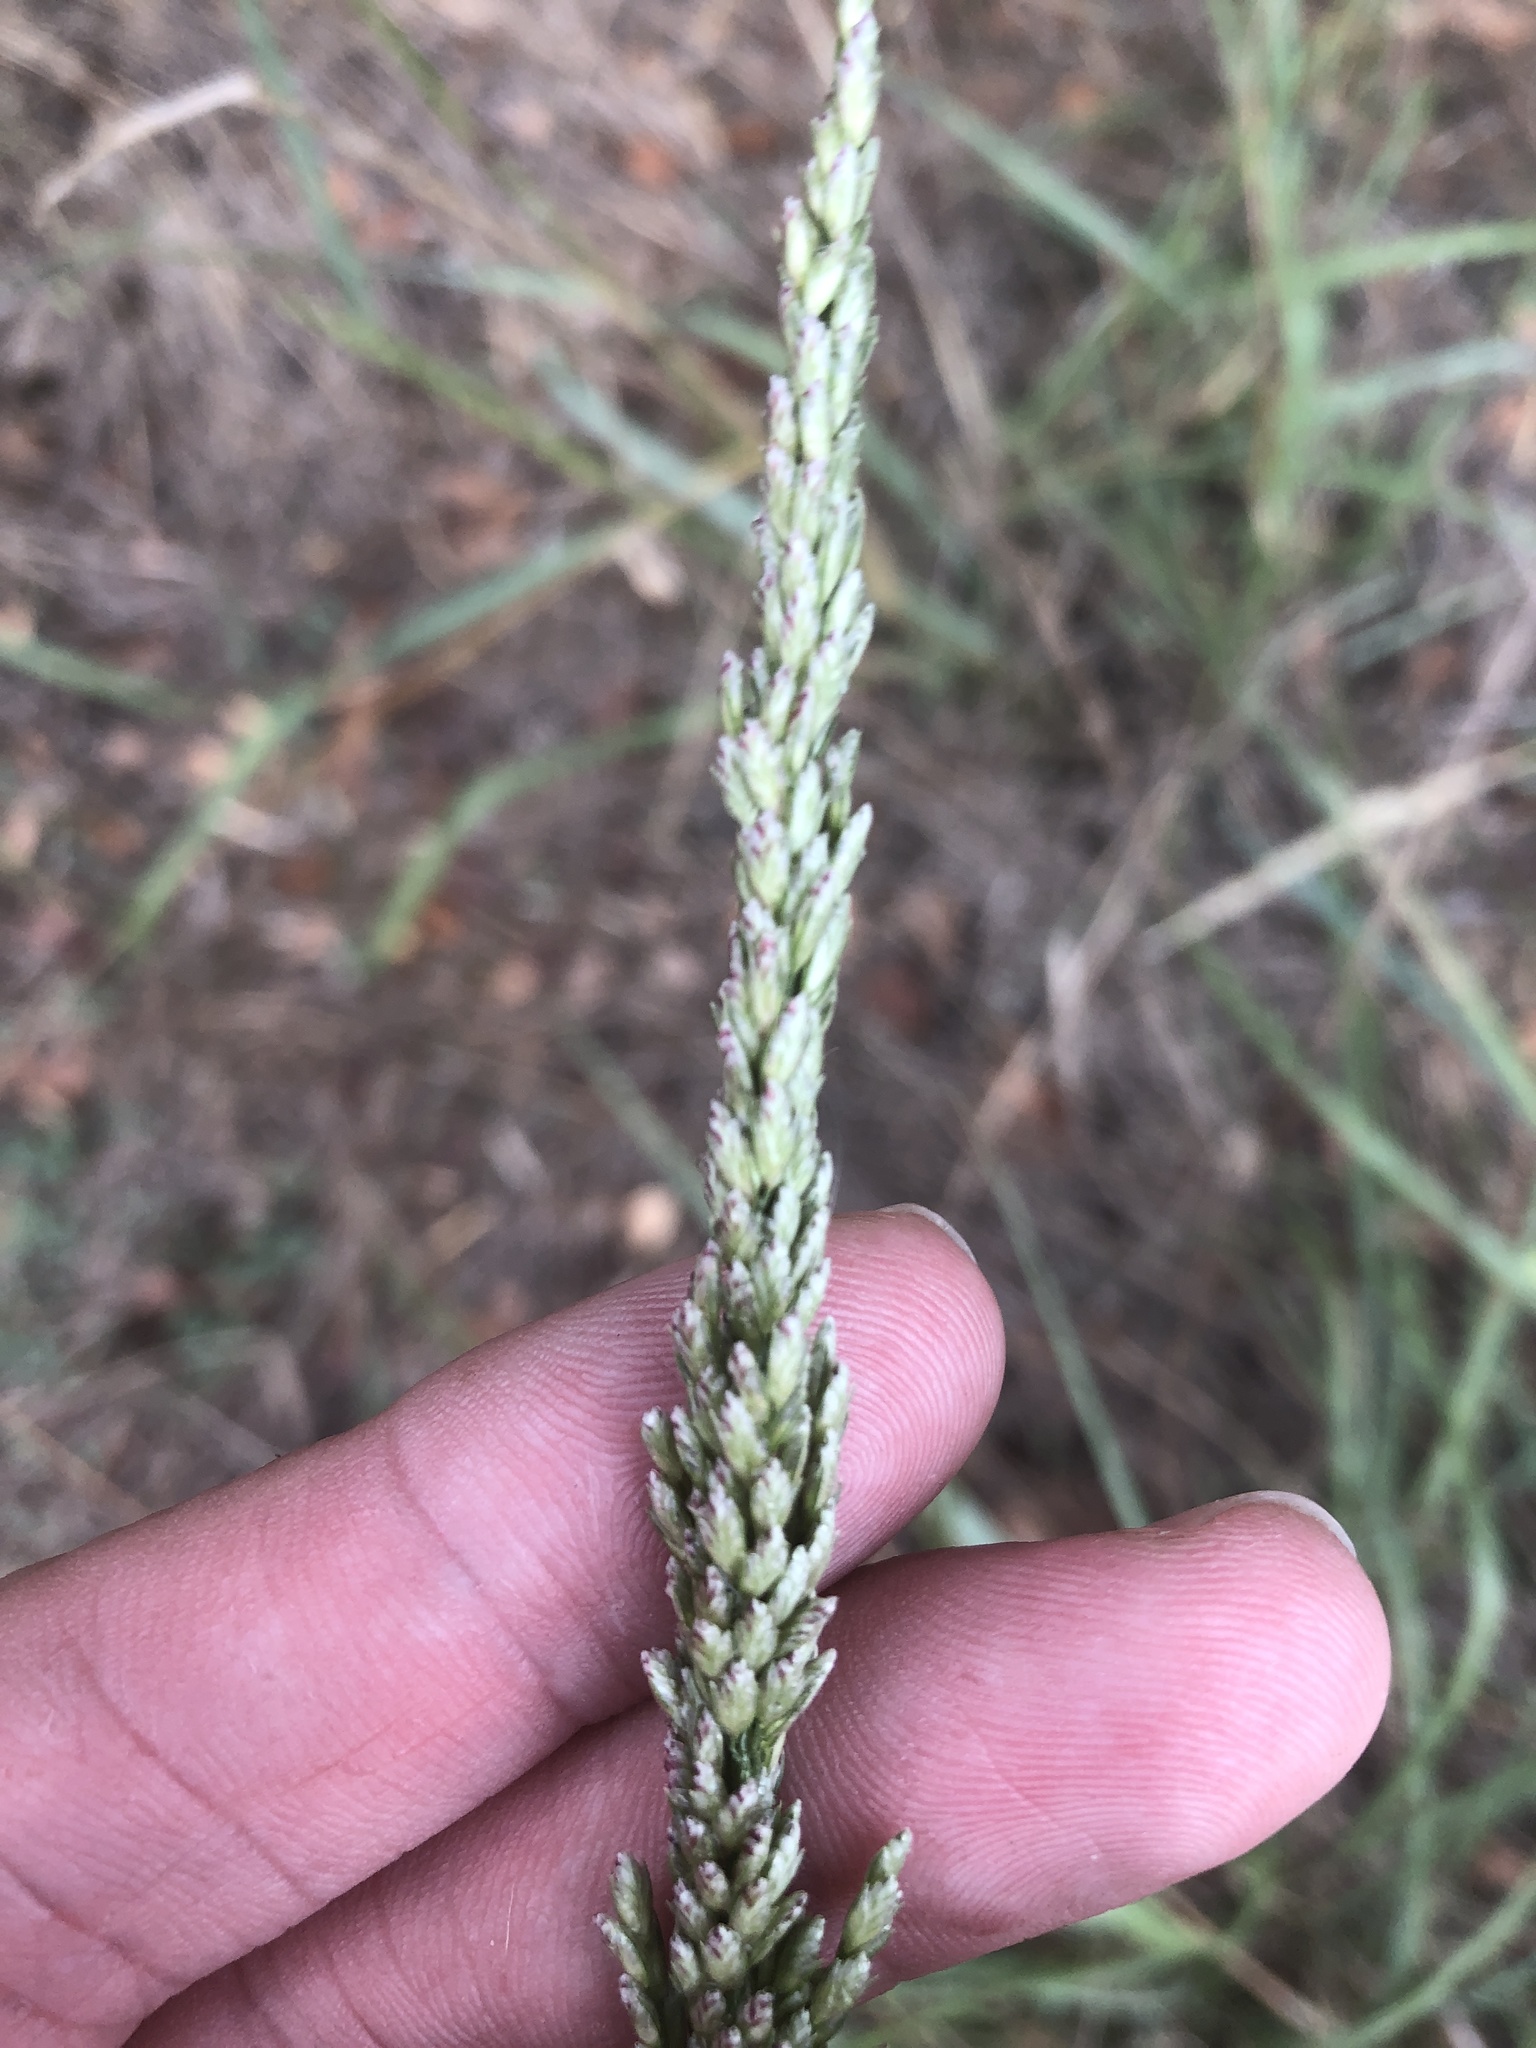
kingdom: Plantae
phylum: Tracheophyta
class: Liliopsida
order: Poales
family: Poaceae
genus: Tridens
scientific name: Tridens albescens
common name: White tridens
